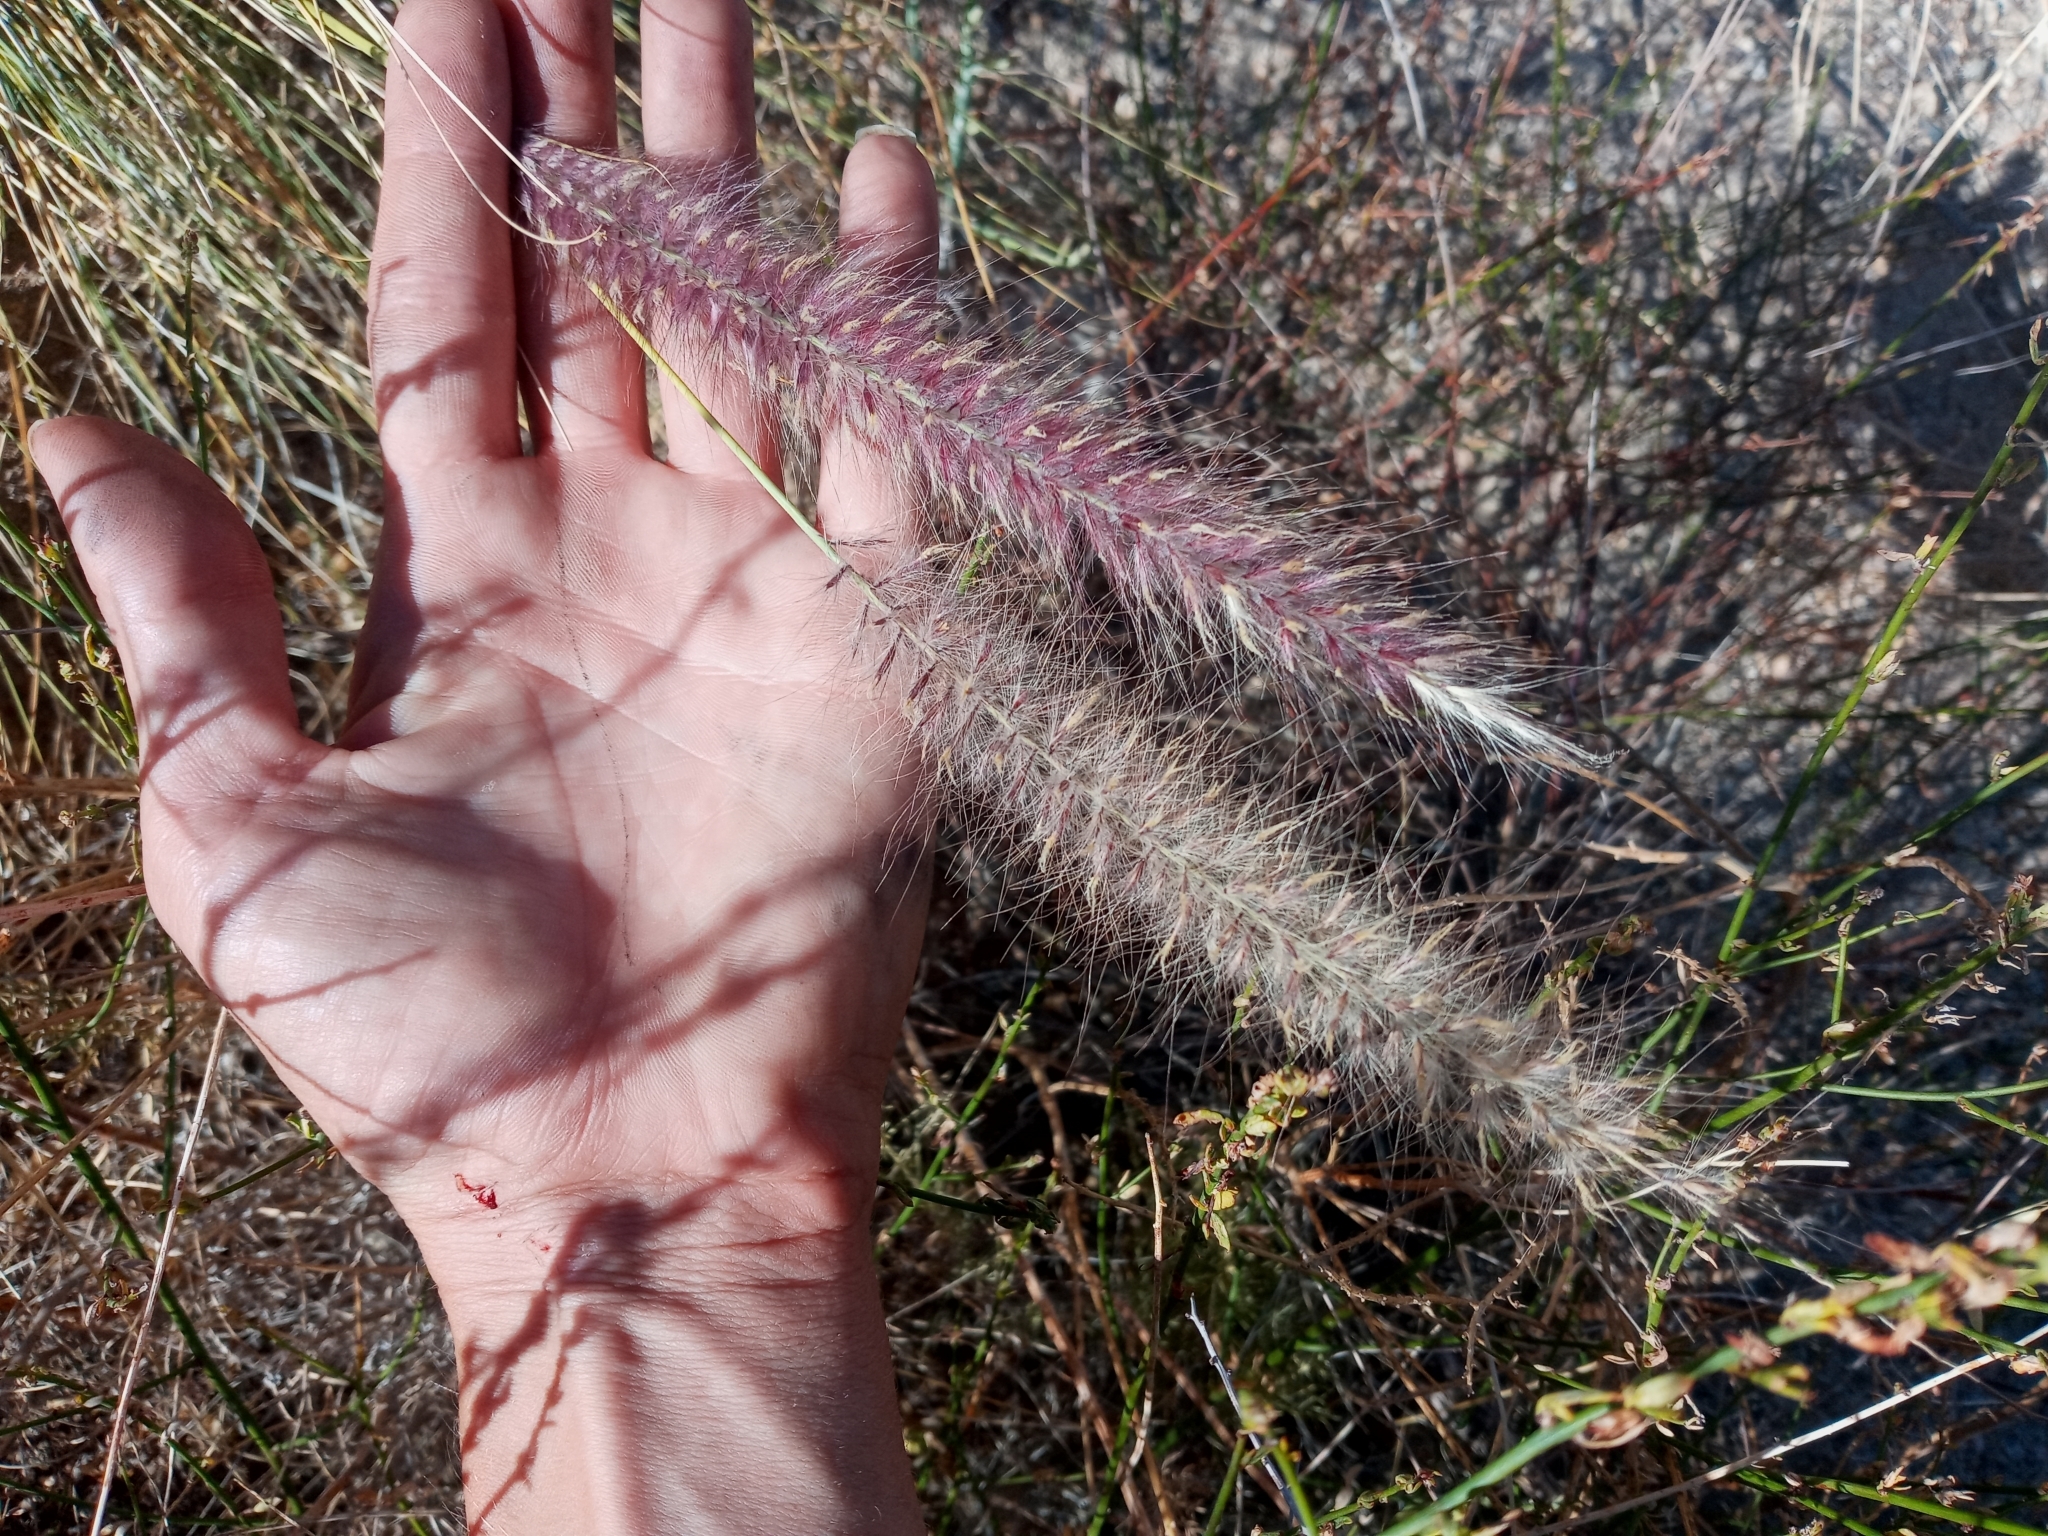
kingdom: Plantae
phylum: Tracheophyta
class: Liliopsida
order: Poales
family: Poaceae
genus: Cenchrus
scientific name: Cenchrus setaceus
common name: Crimson fountaingrass
